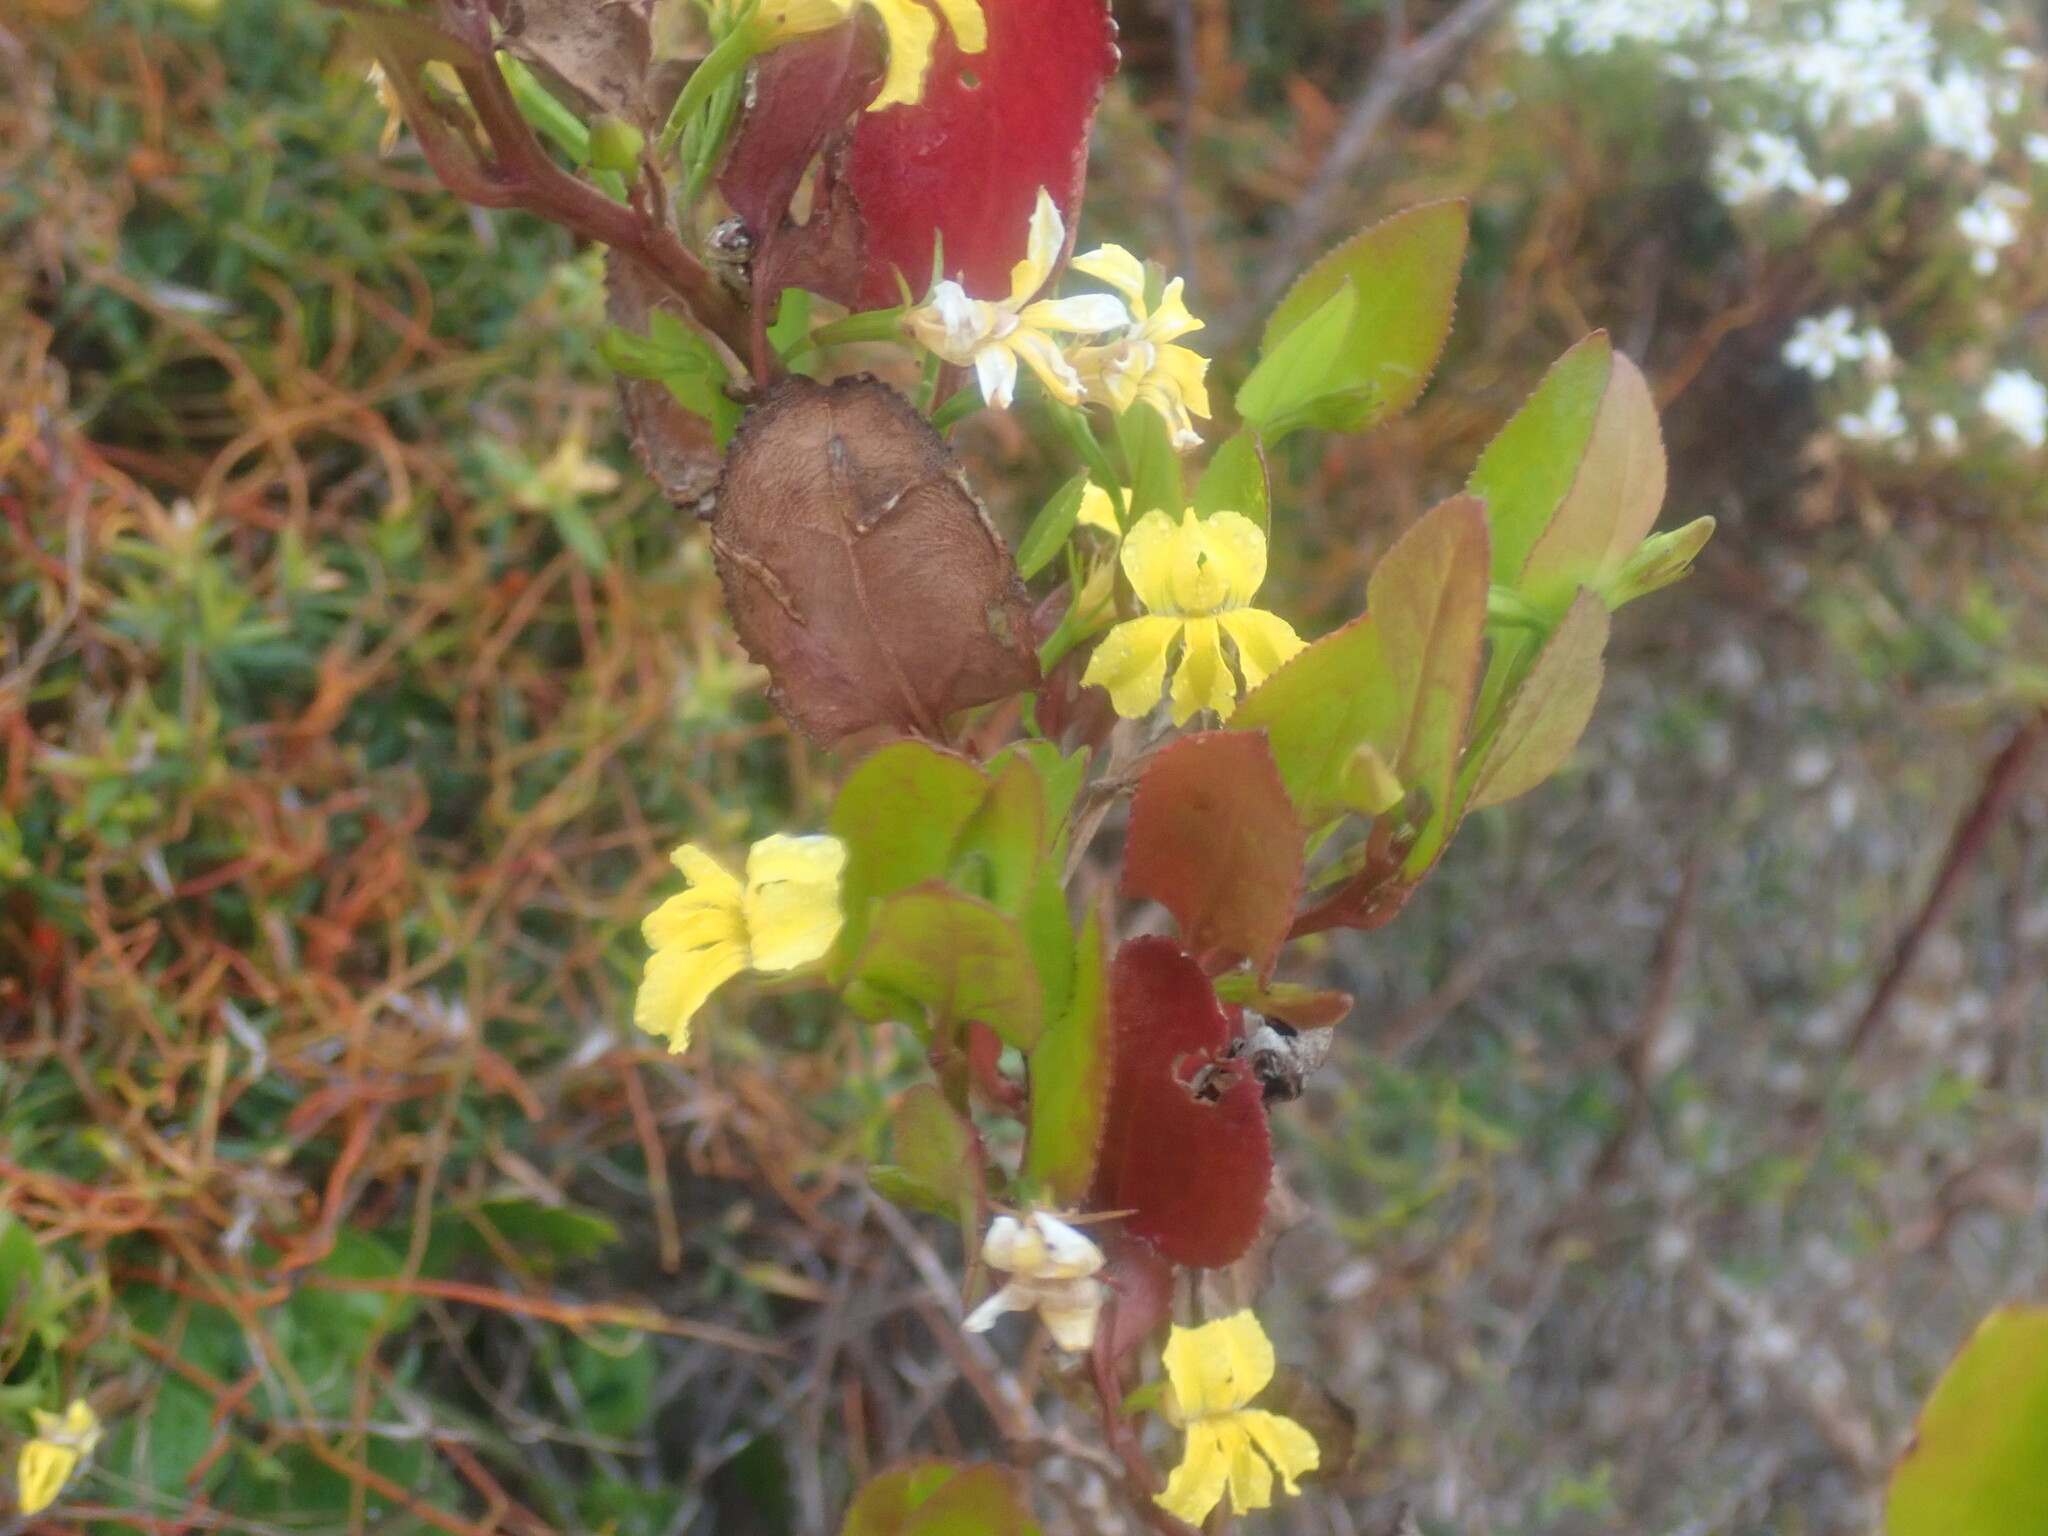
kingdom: Plantae
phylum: Tracheophyta
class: Magnoliopsida
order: Asterales
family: Goodeniaceae
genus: Goodenia
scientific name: Goodenia ovata
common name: Hop goodenia
